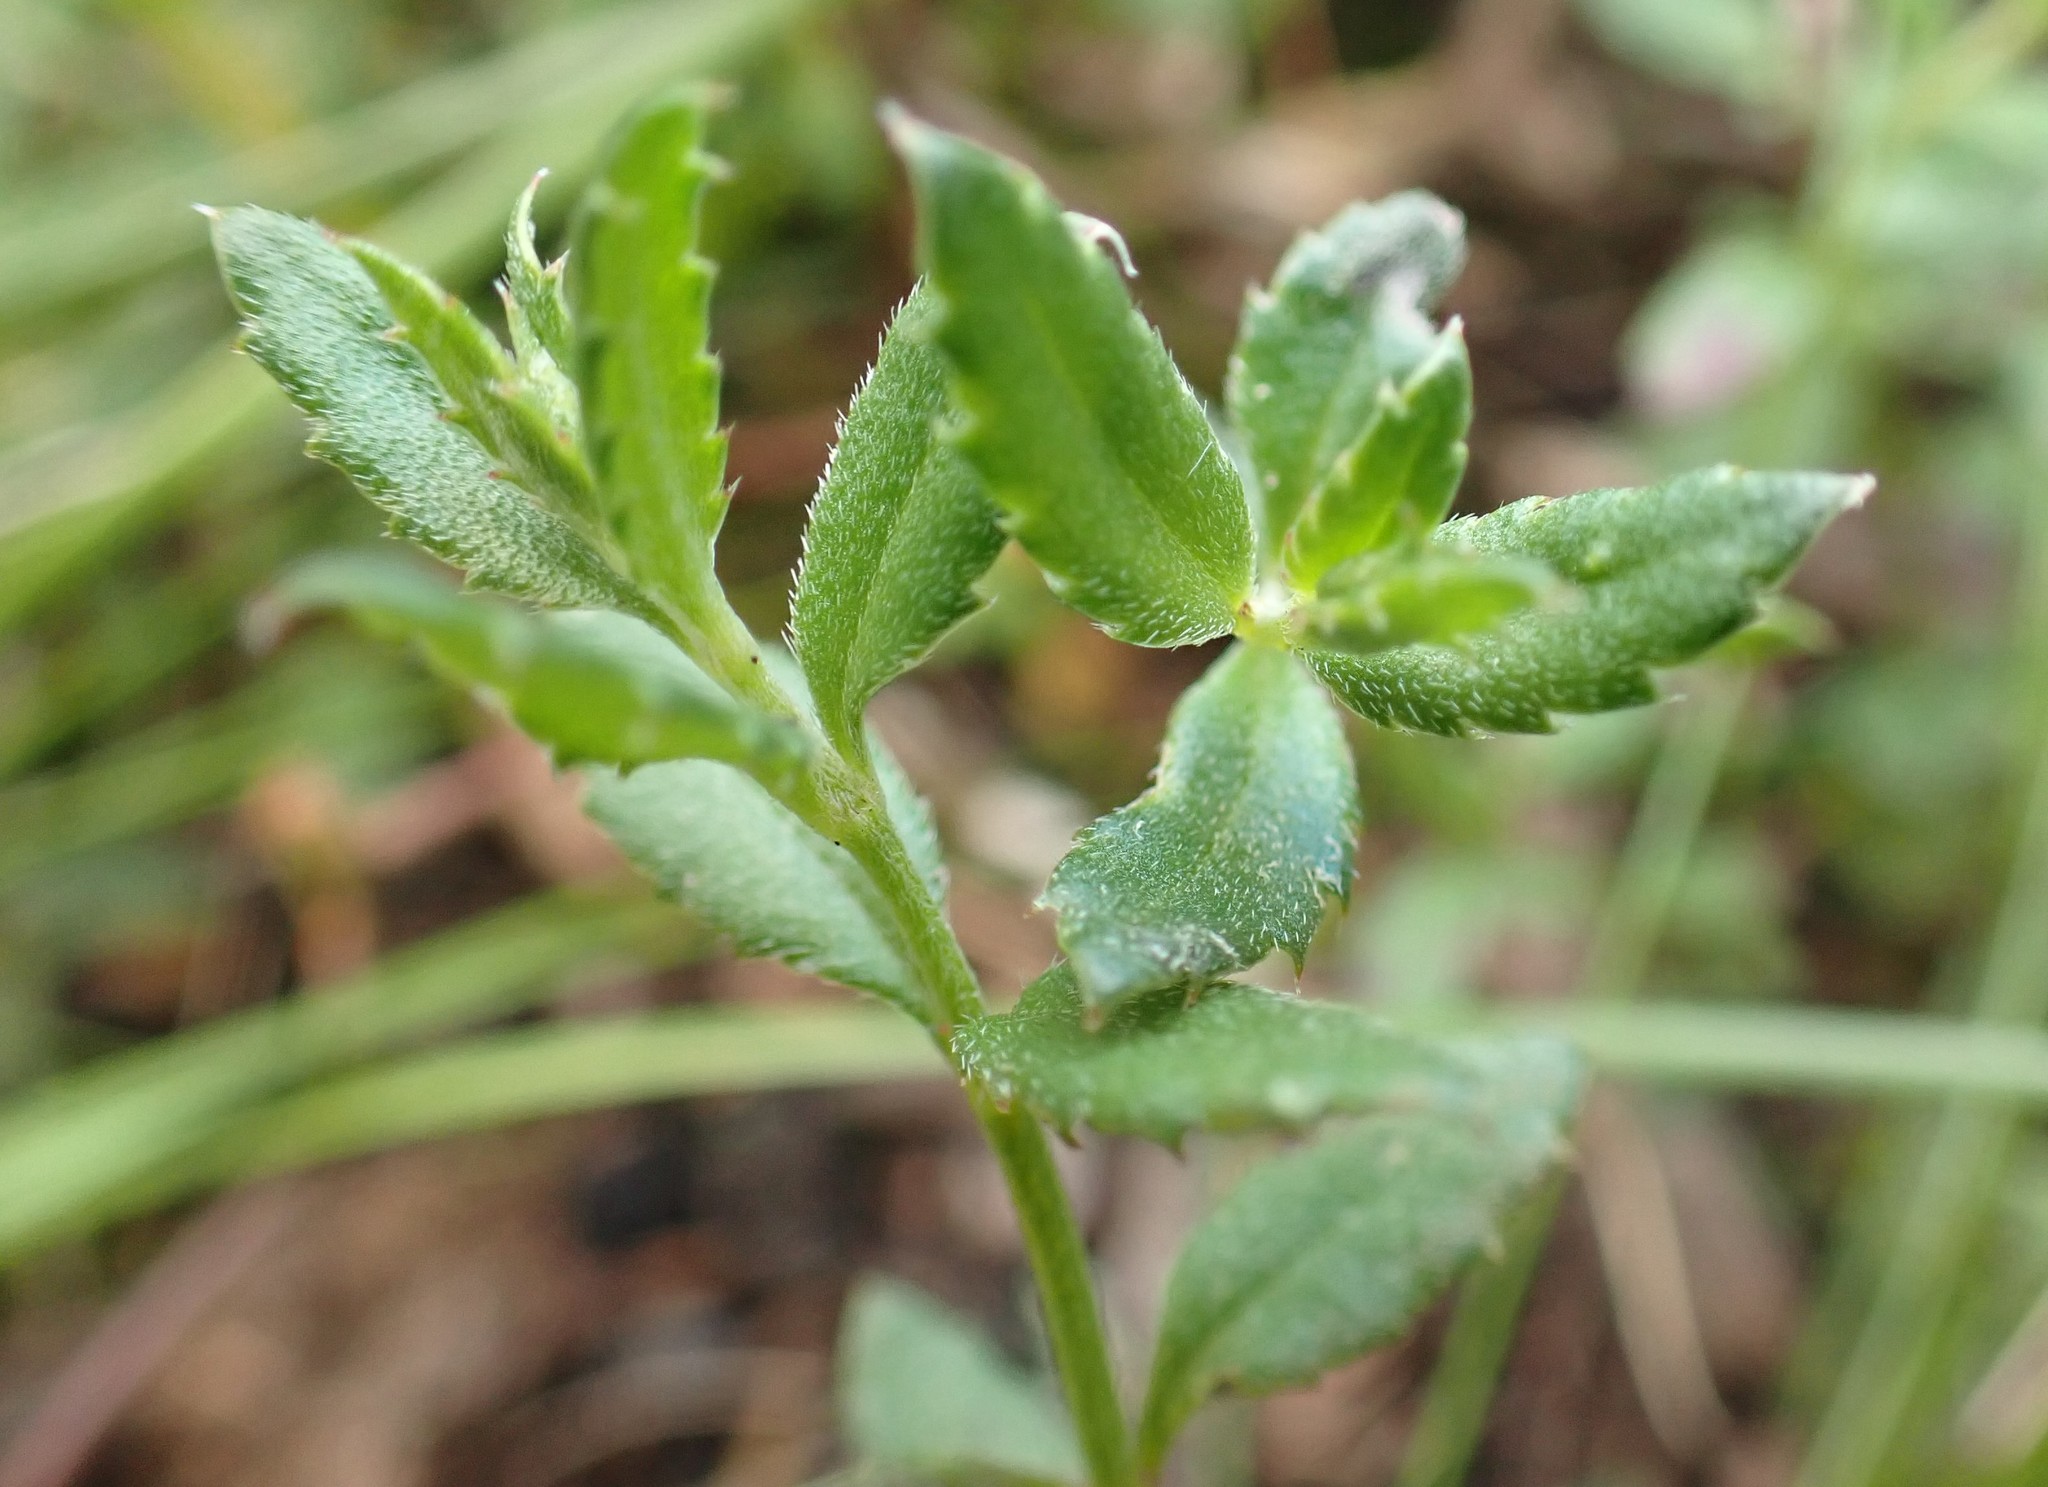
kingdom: Plantae
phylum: Tracheophyta
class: Magnoliopsida
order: Saxifragales
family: Haloragaceae
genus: Gonocarpus
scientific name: Gonocarpus tetragynus
